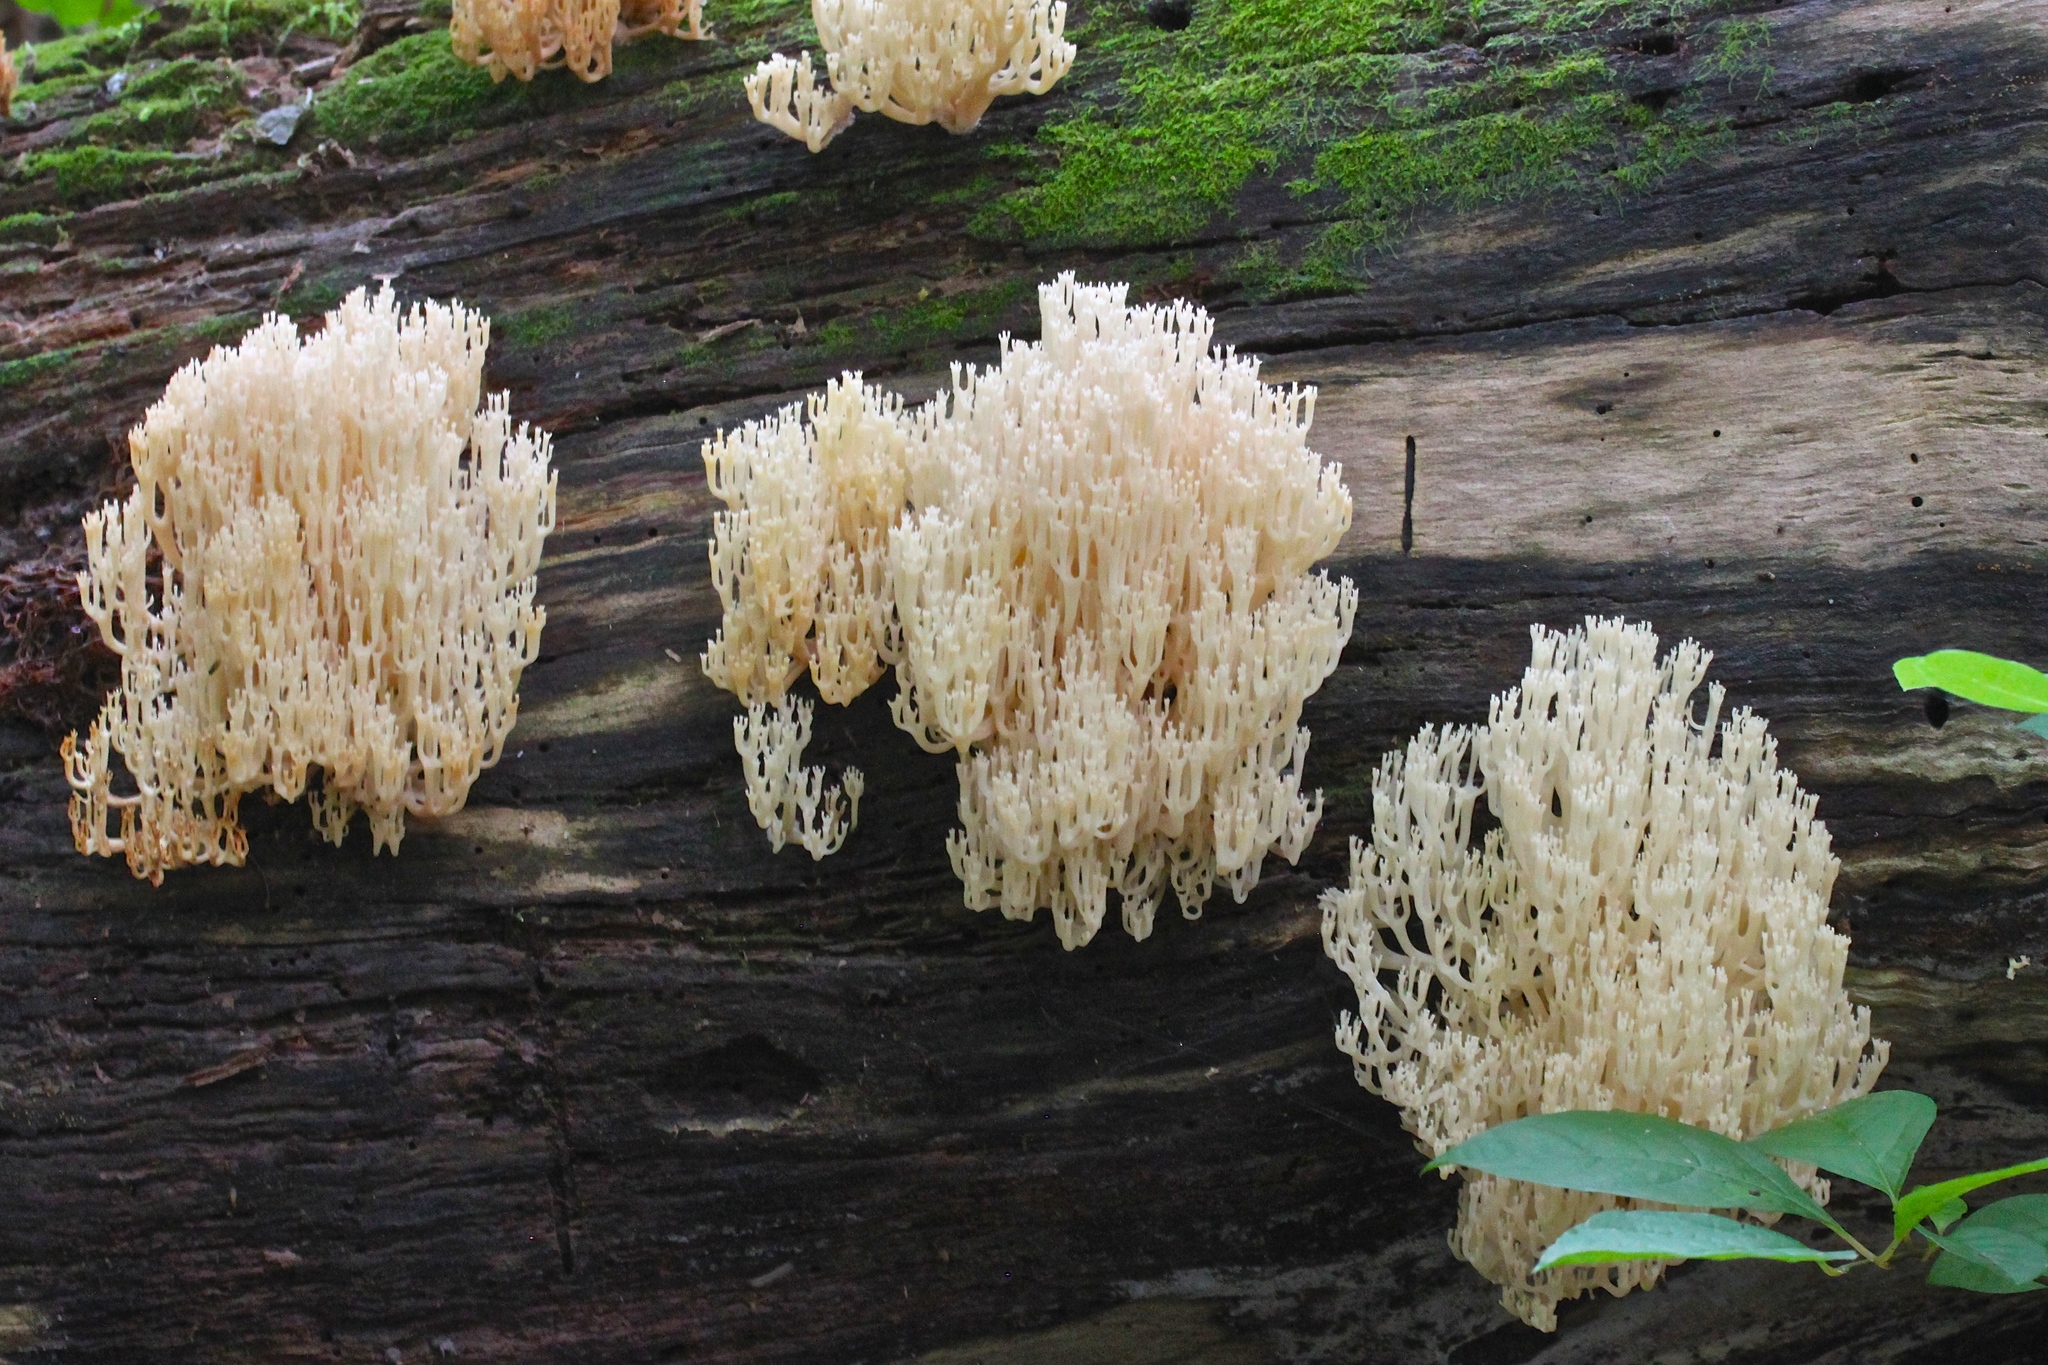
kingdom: Fungi
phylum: Basidiomycota
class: Agaricomycetes
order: Russulales
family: Auriscalpiaceae
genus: Artomyces
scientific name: Artomyces pyxidatus
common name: Crown-tipped coral fungus
